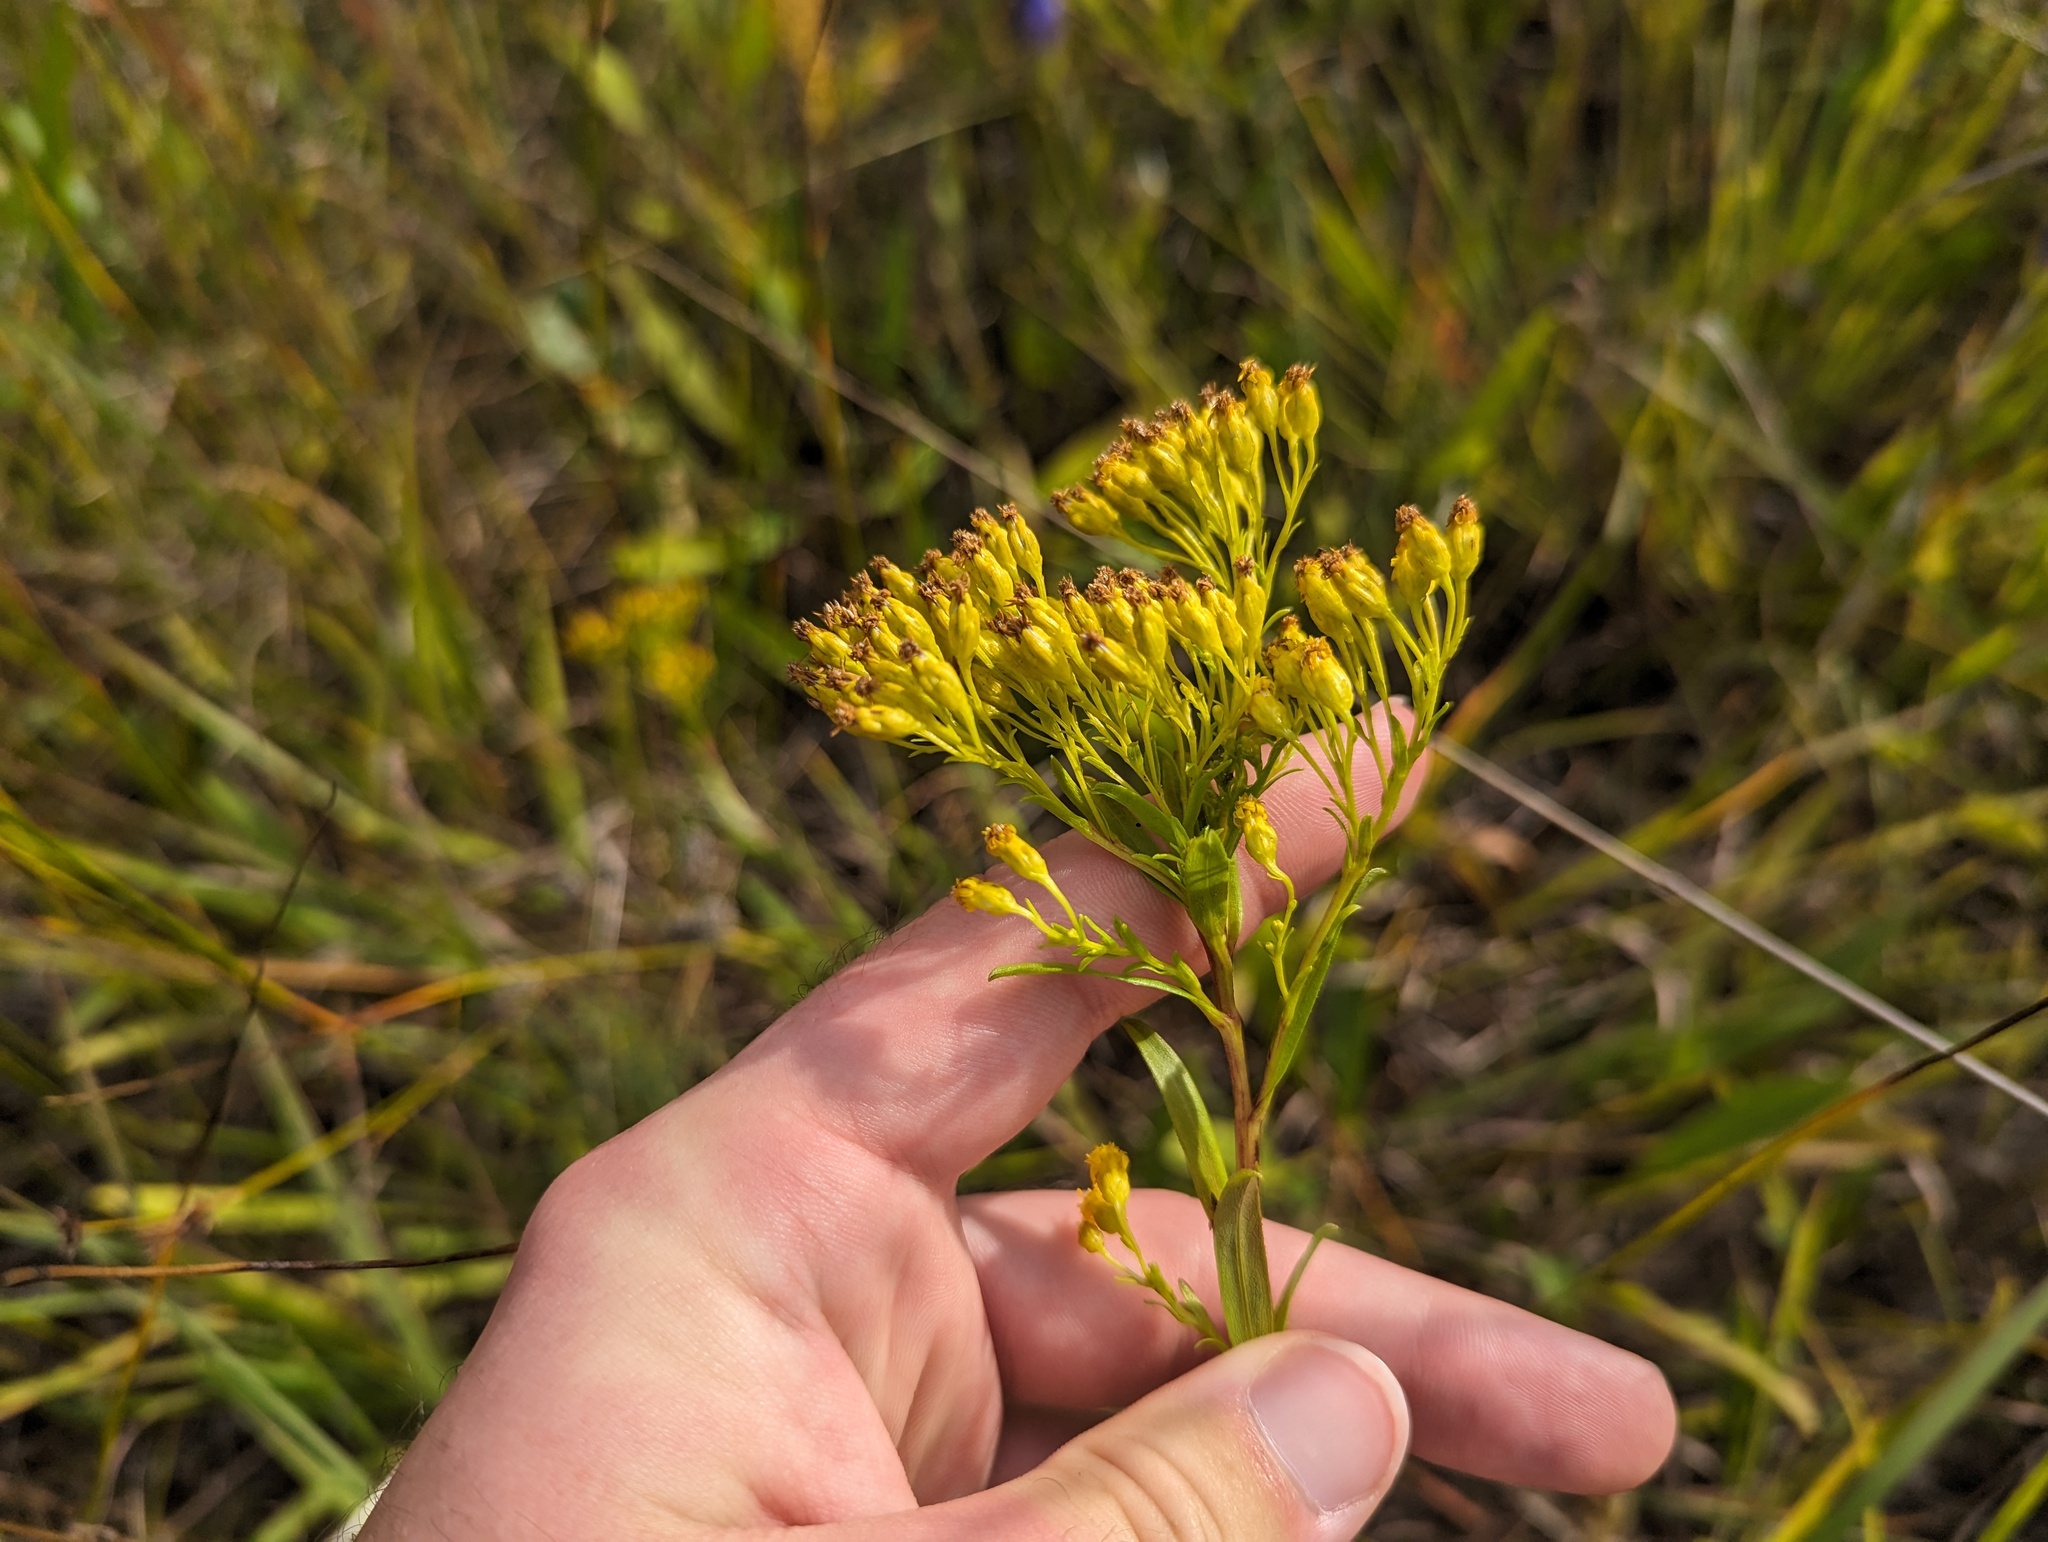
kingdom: Plantae
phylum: Tracheophyta
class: Magnoliopsida
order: Asterales
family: Asteraceae
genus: Solidago
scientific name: Solidago ohioensis
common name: Ohio goldenrod
